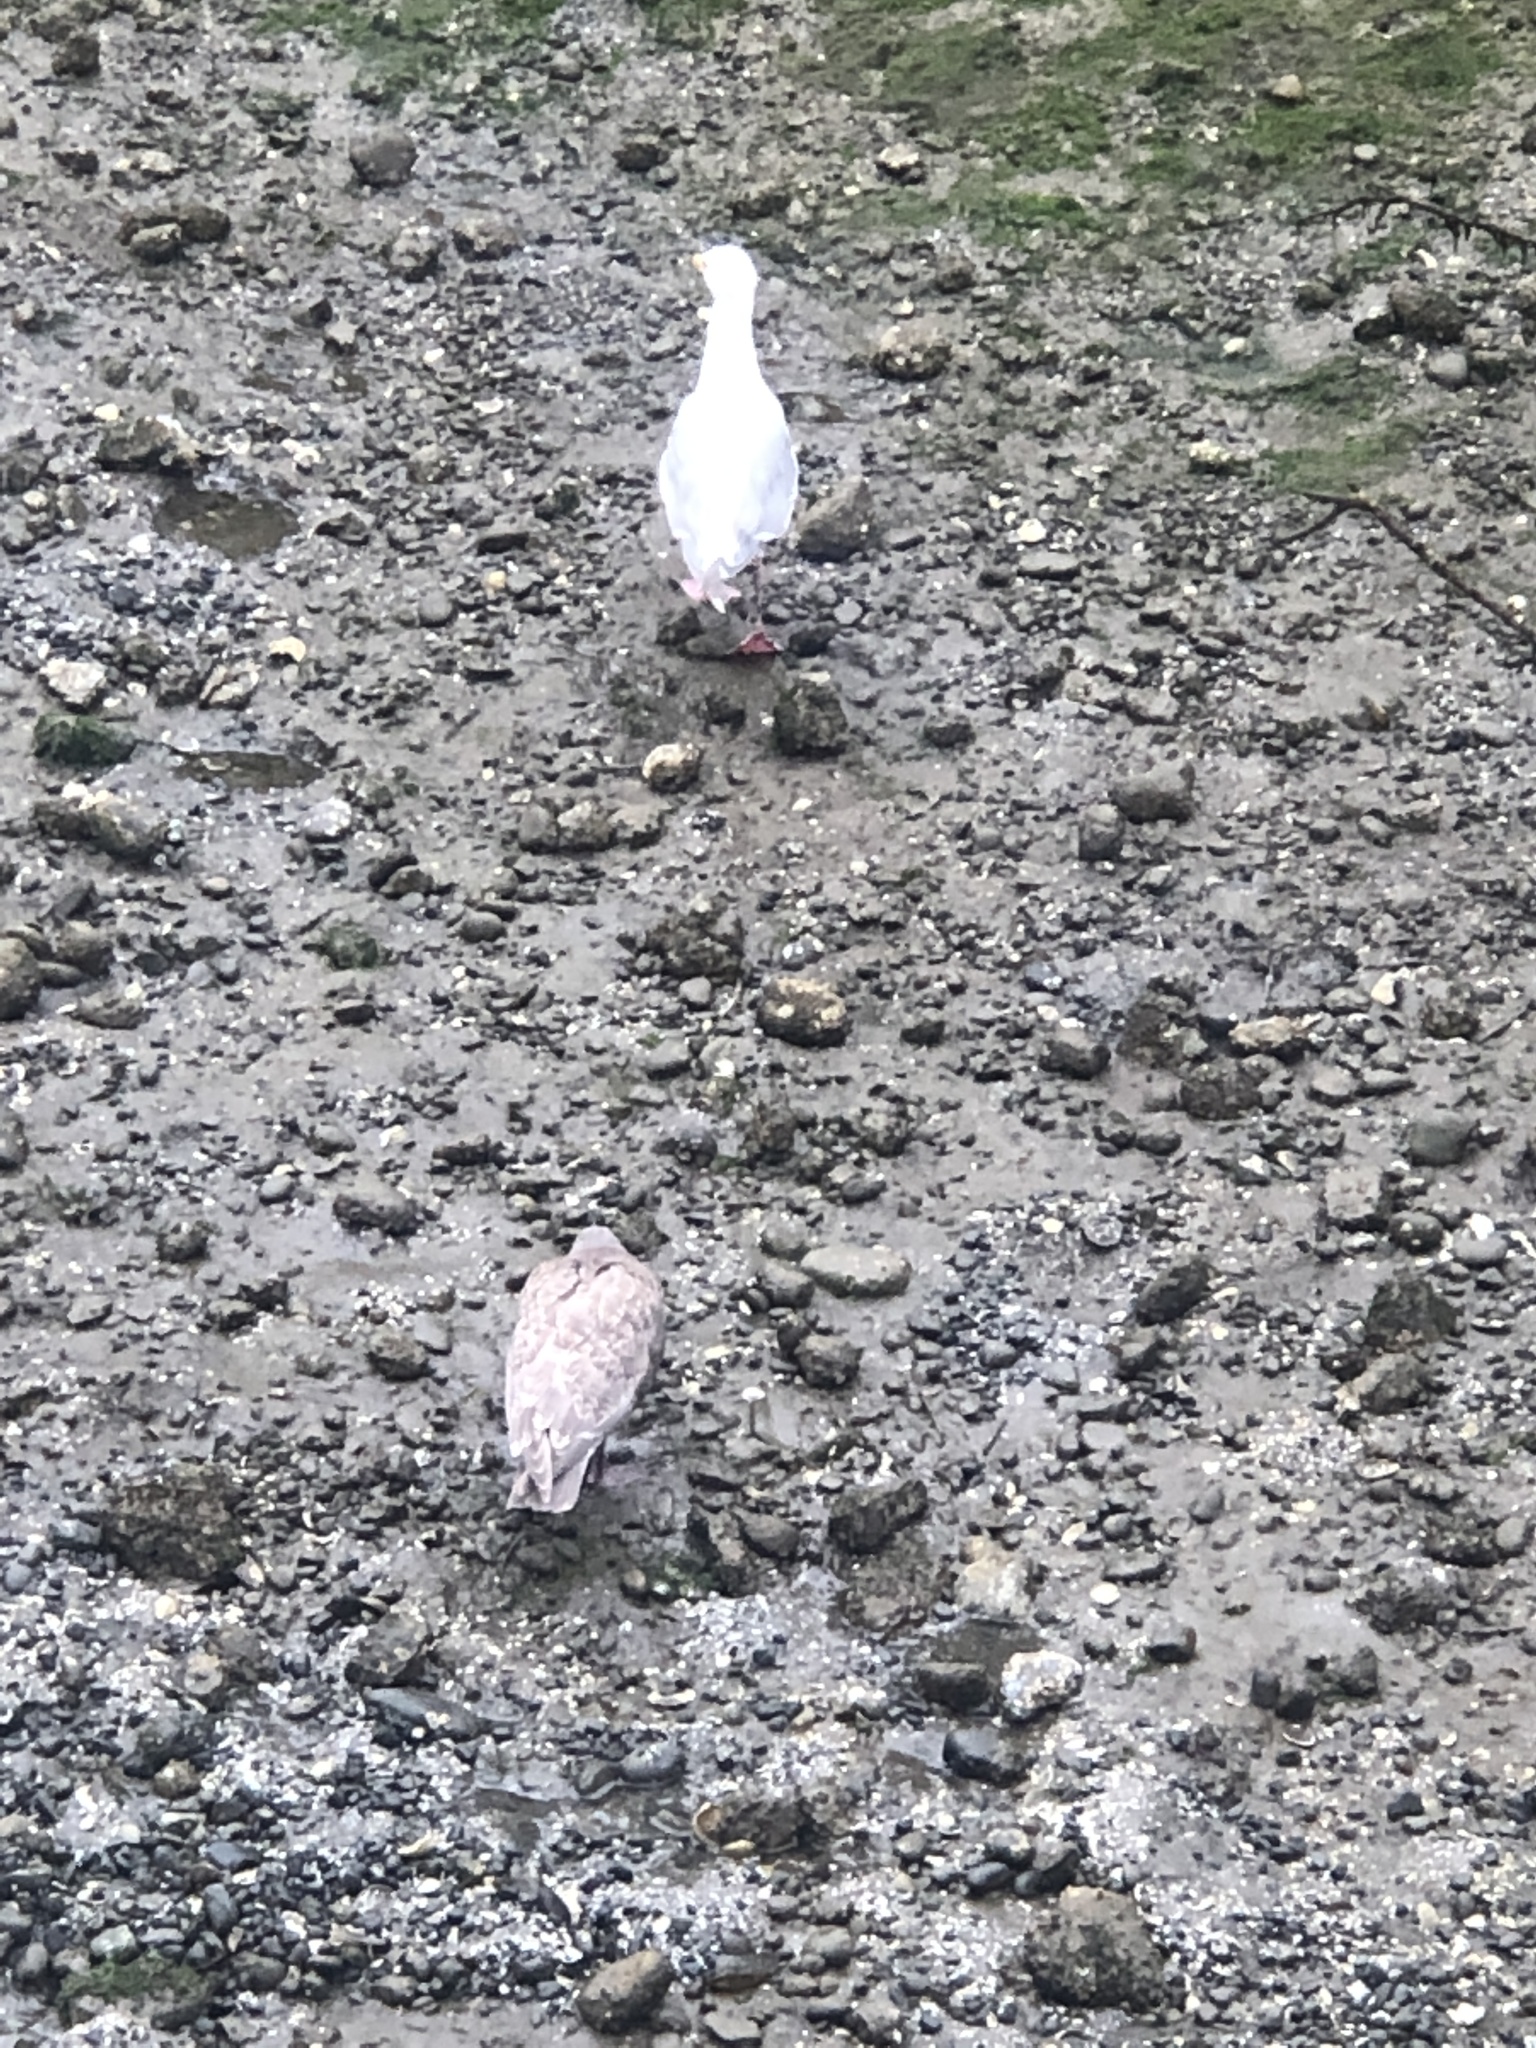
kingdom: Animalia
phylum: Chordata
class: Aves
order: Charadriiformes
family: Laridae
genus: Larus
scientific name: Larus glaucescens
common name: Glaucous-winged gull
